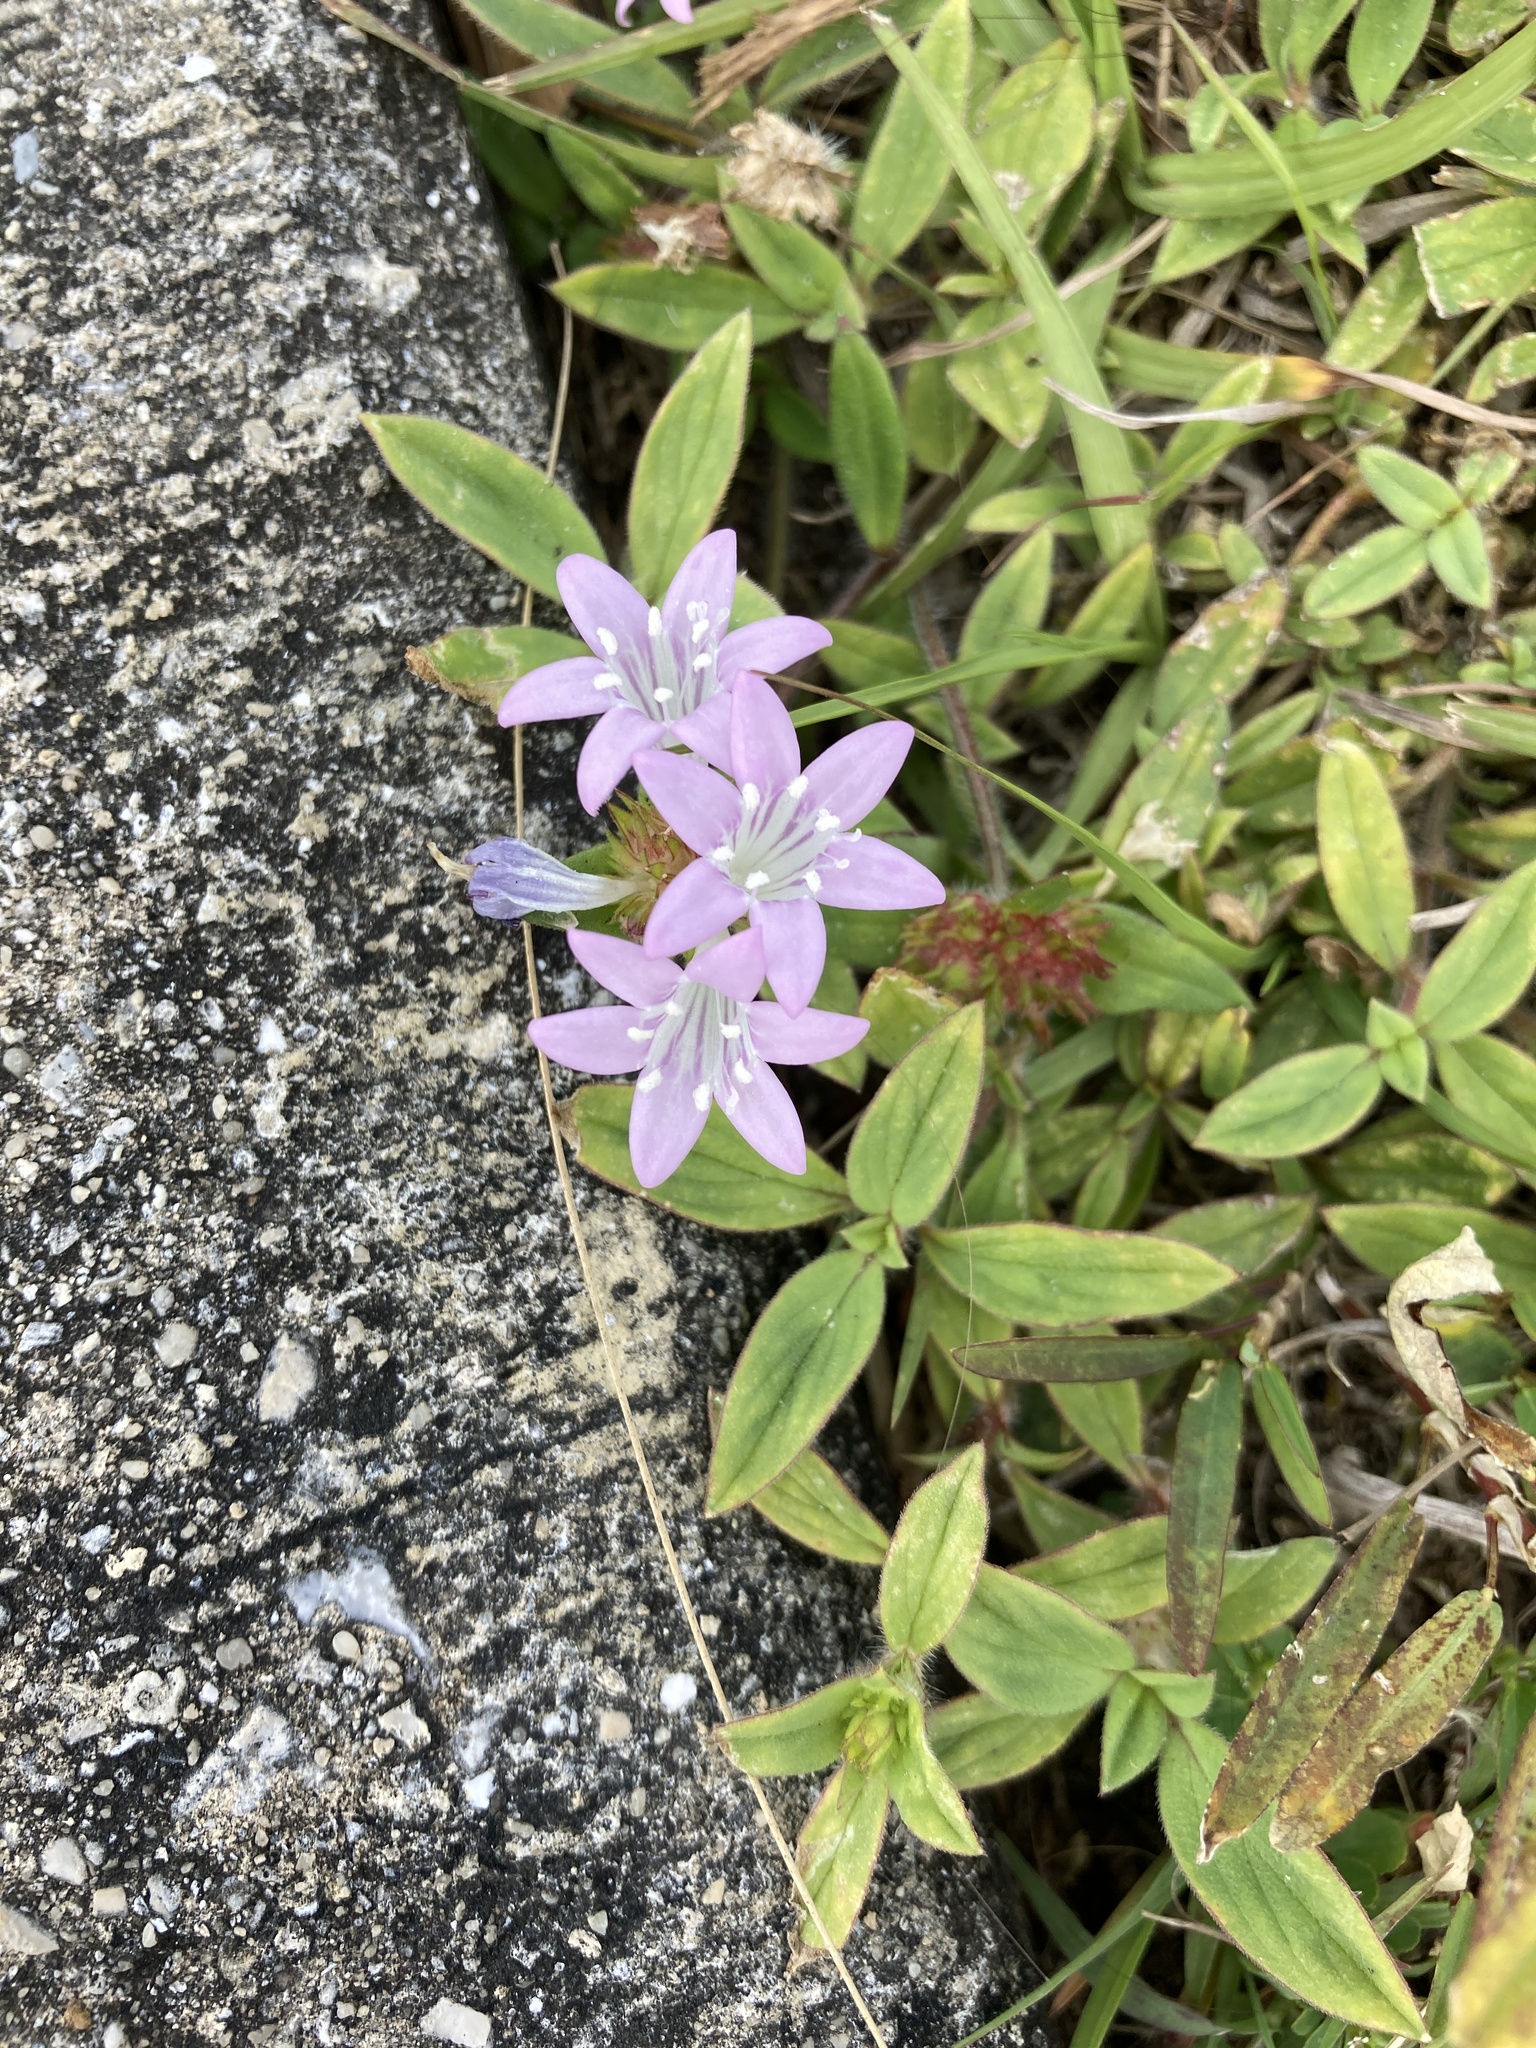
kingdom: Plantae
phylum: Tracheophyta
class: Magnoliopsida
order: Gentianales
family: Rubiaceae
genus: Richardia
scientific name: Richardia grandiflora
